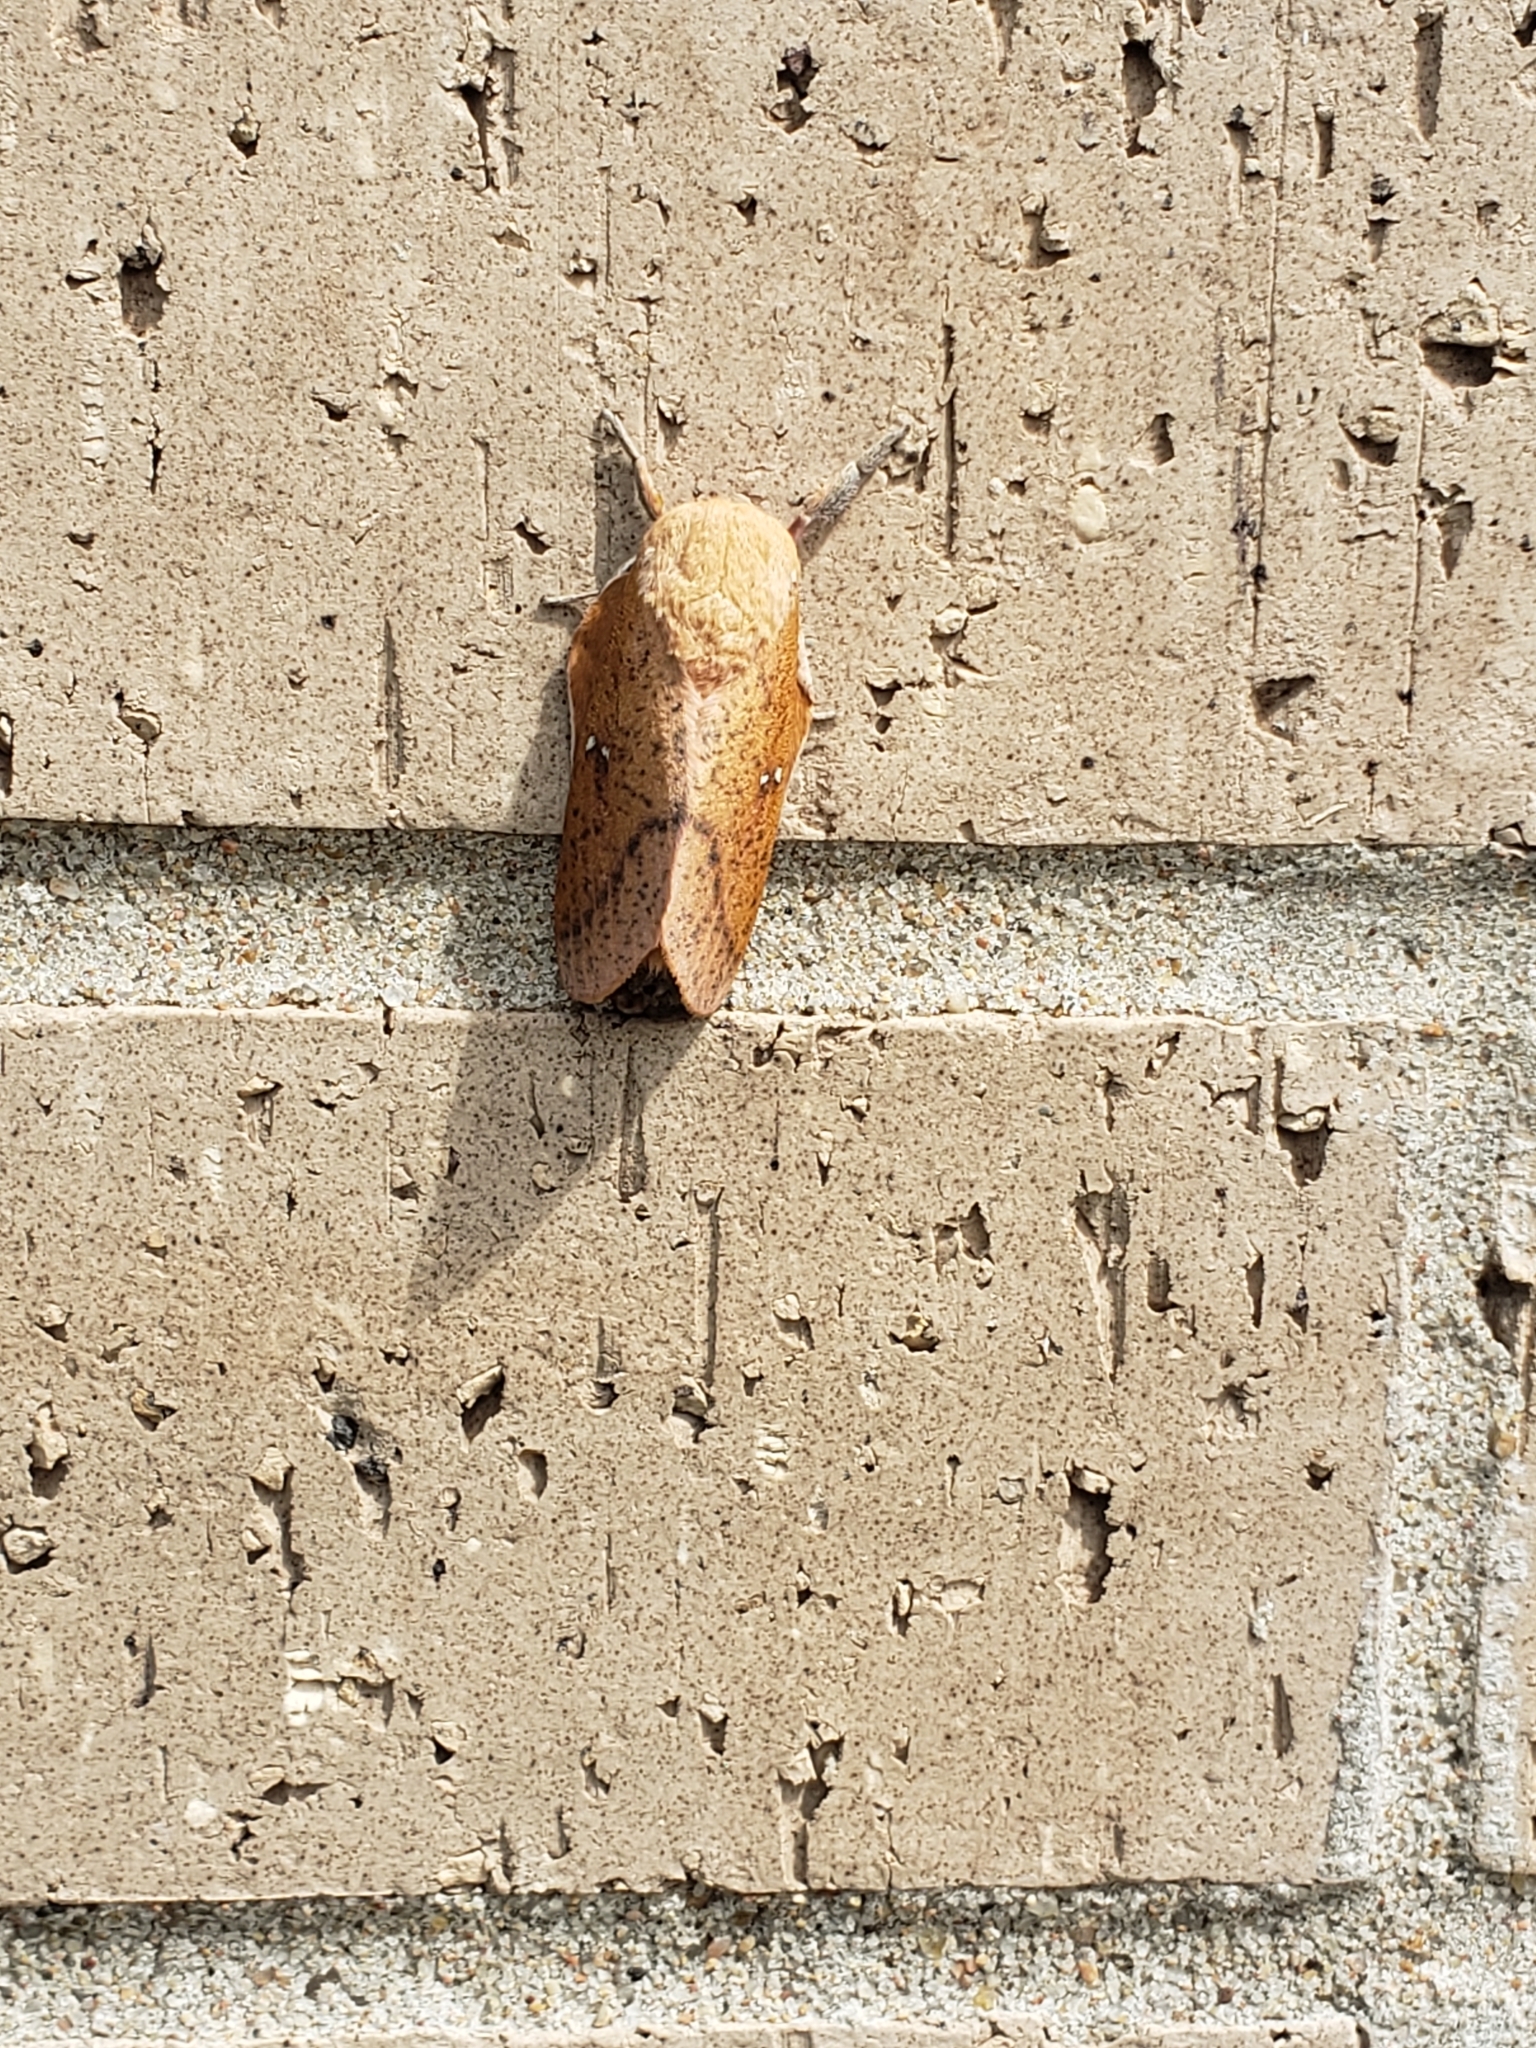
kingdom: Animalia
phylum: Arthropoda
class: Insecta
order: Lepidoptera
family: Saturniidae
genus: Syssphinx
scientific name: Syssphinx bicolor
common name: Honey locust moth
